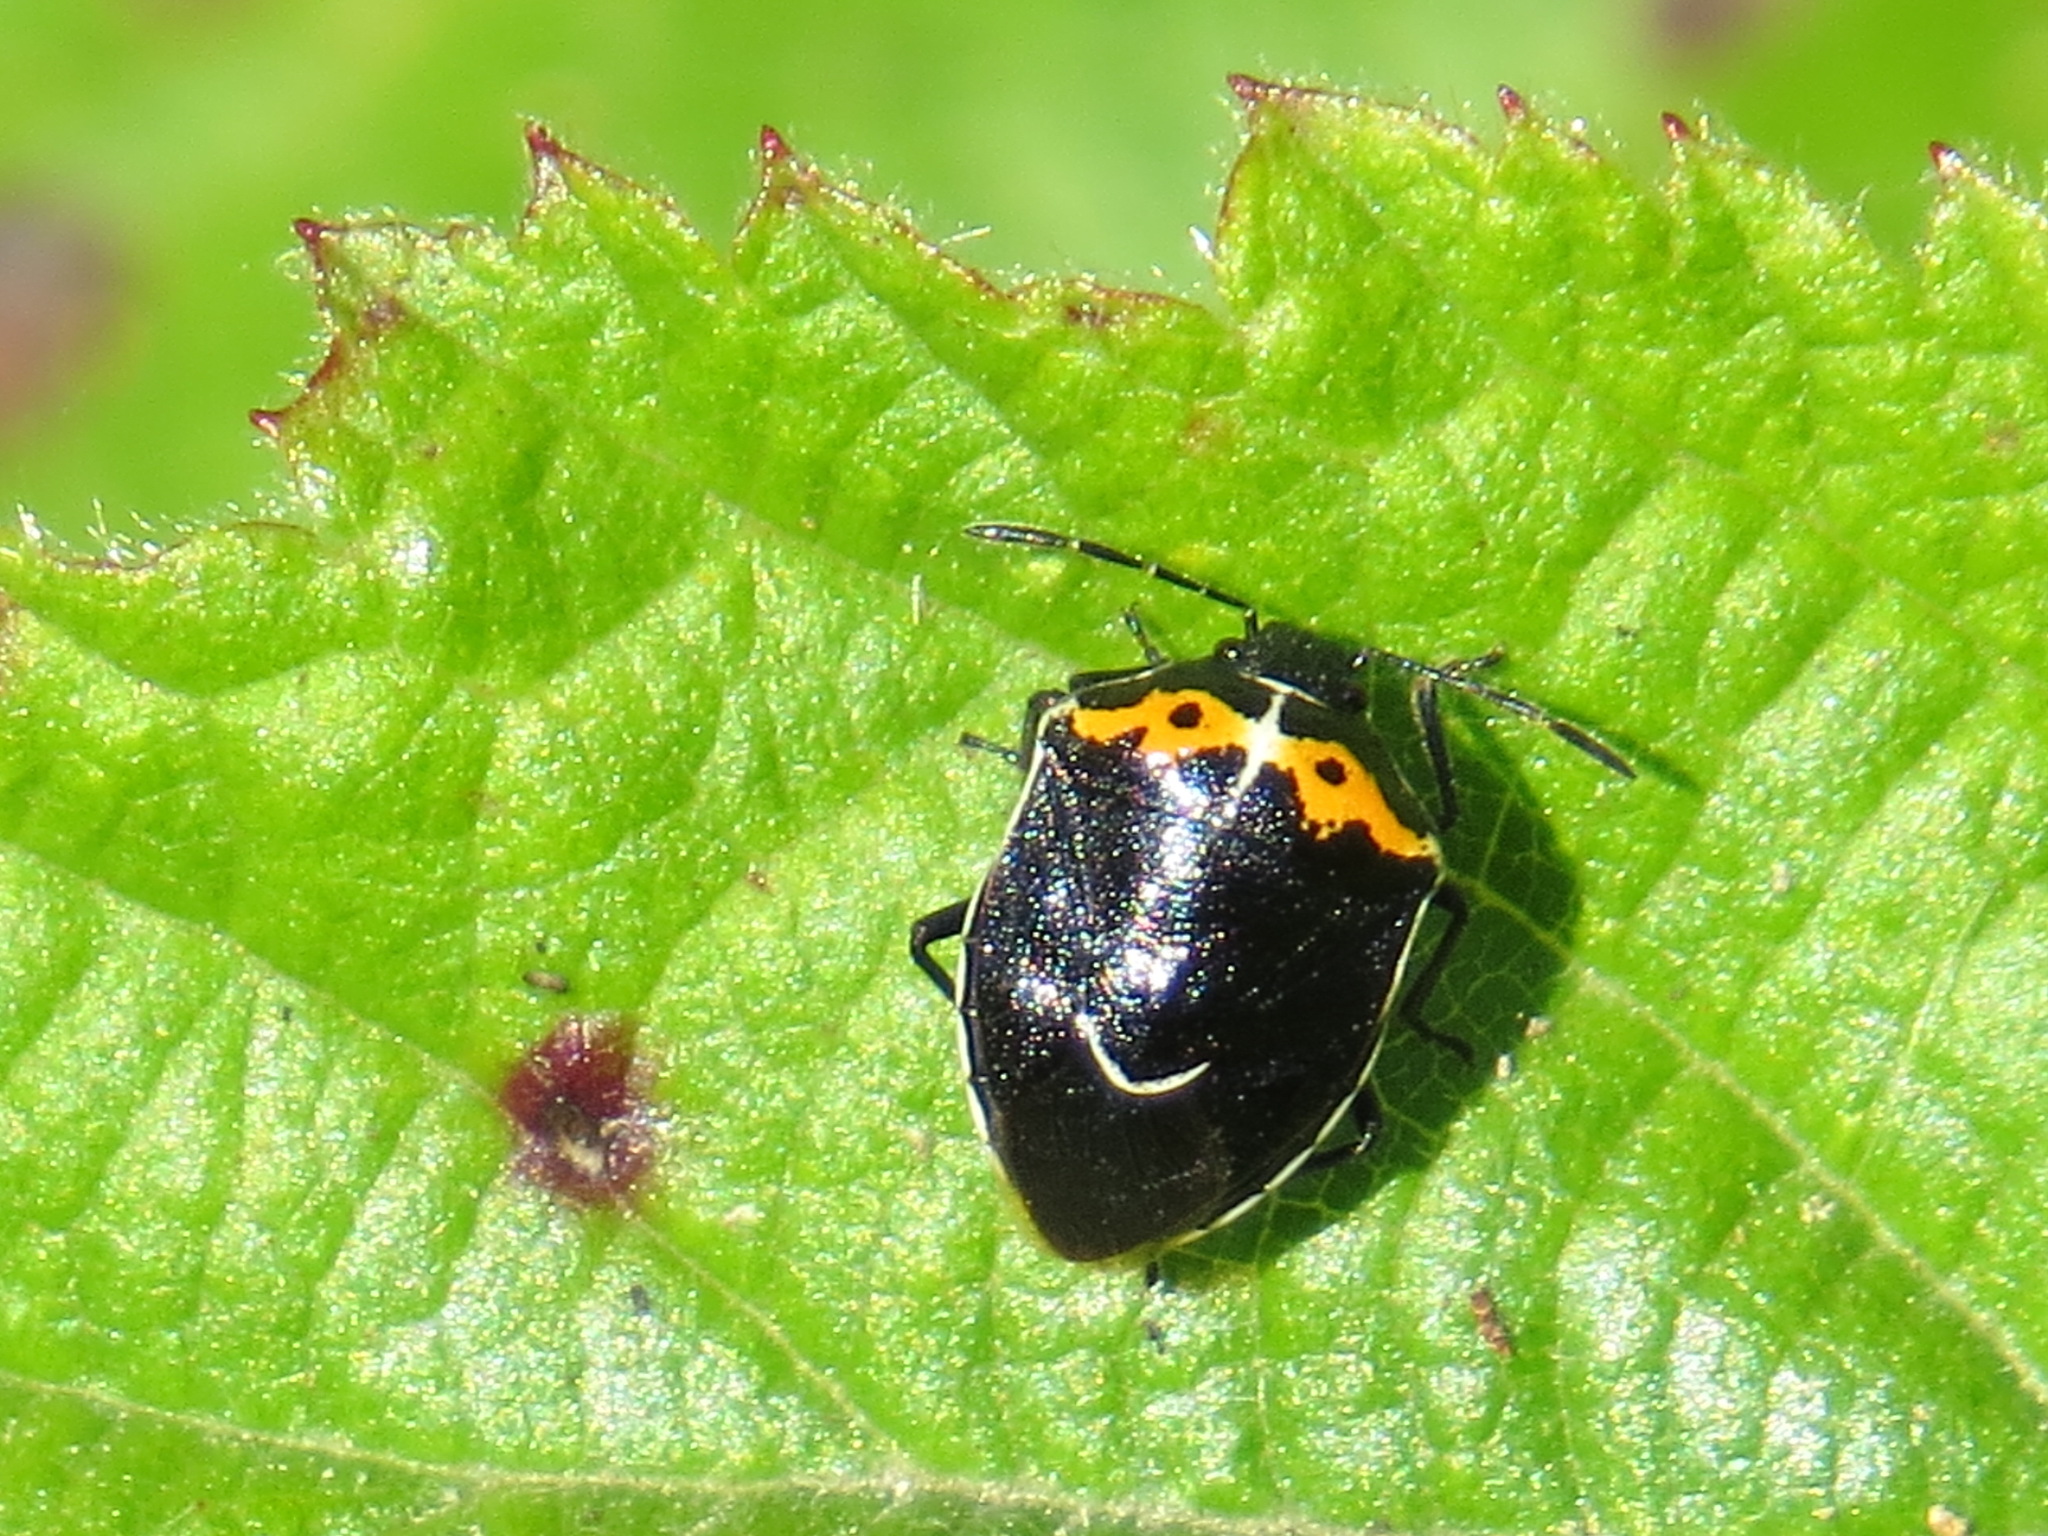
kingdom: Animalia
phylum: Arthropoda
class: Insecta
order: Hemiptera
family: Pentatomidae
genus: Cosmopepla
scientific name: Cosmopepla conspicillaris
